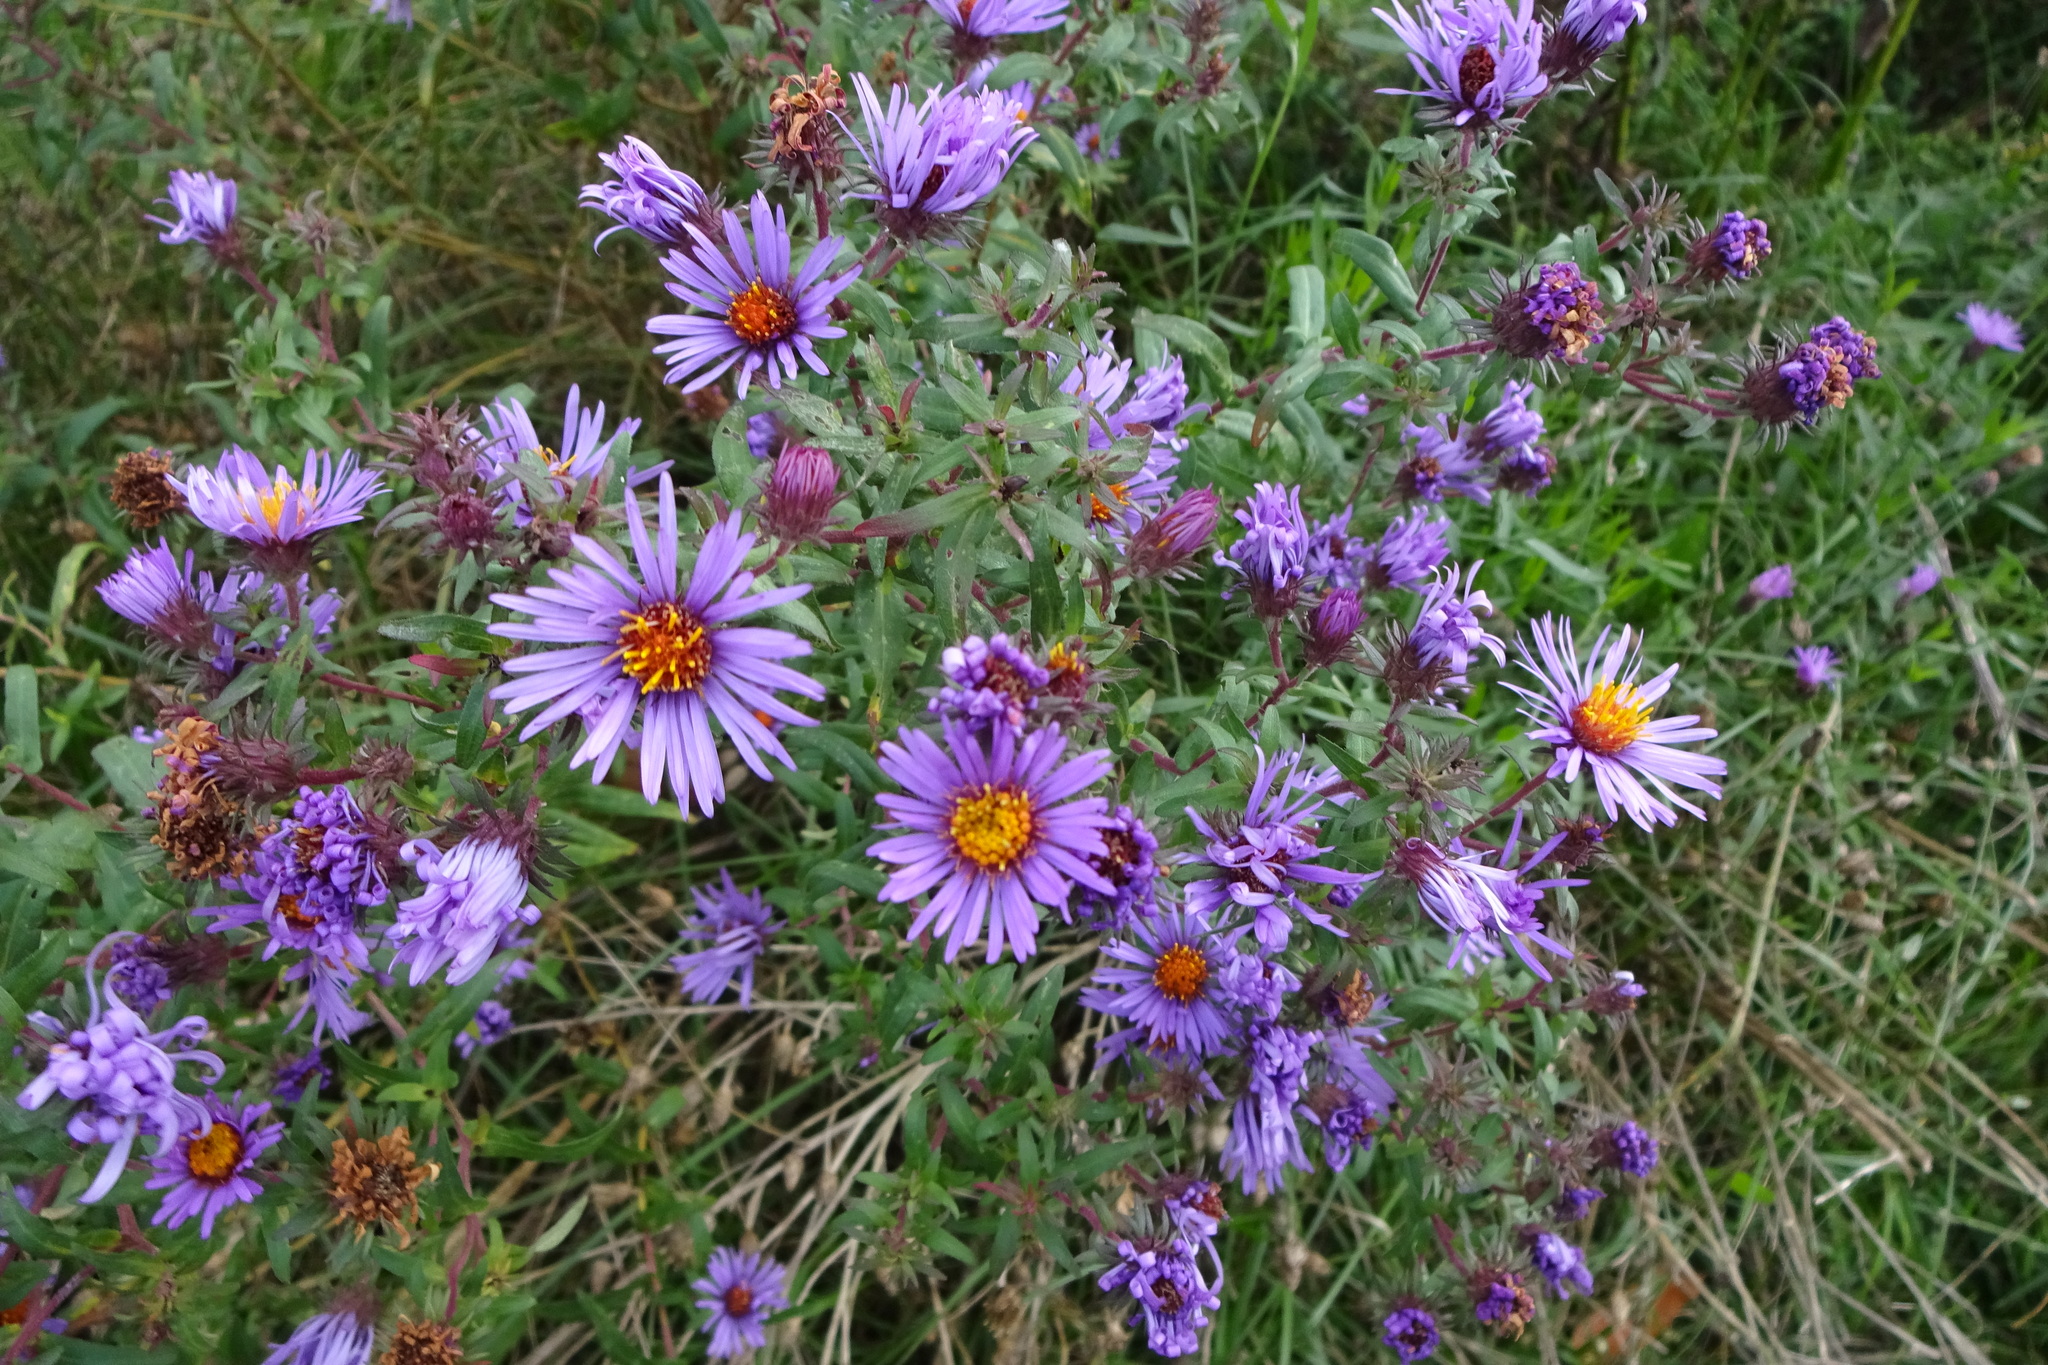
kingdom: Plantae
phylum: Tracheophyta
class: Magnoliopsida
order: Asterales
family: Asteraceae
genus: Symphyotrichum
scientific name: Symphyotrichum novae-angliae
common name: Michaelmas daisy
